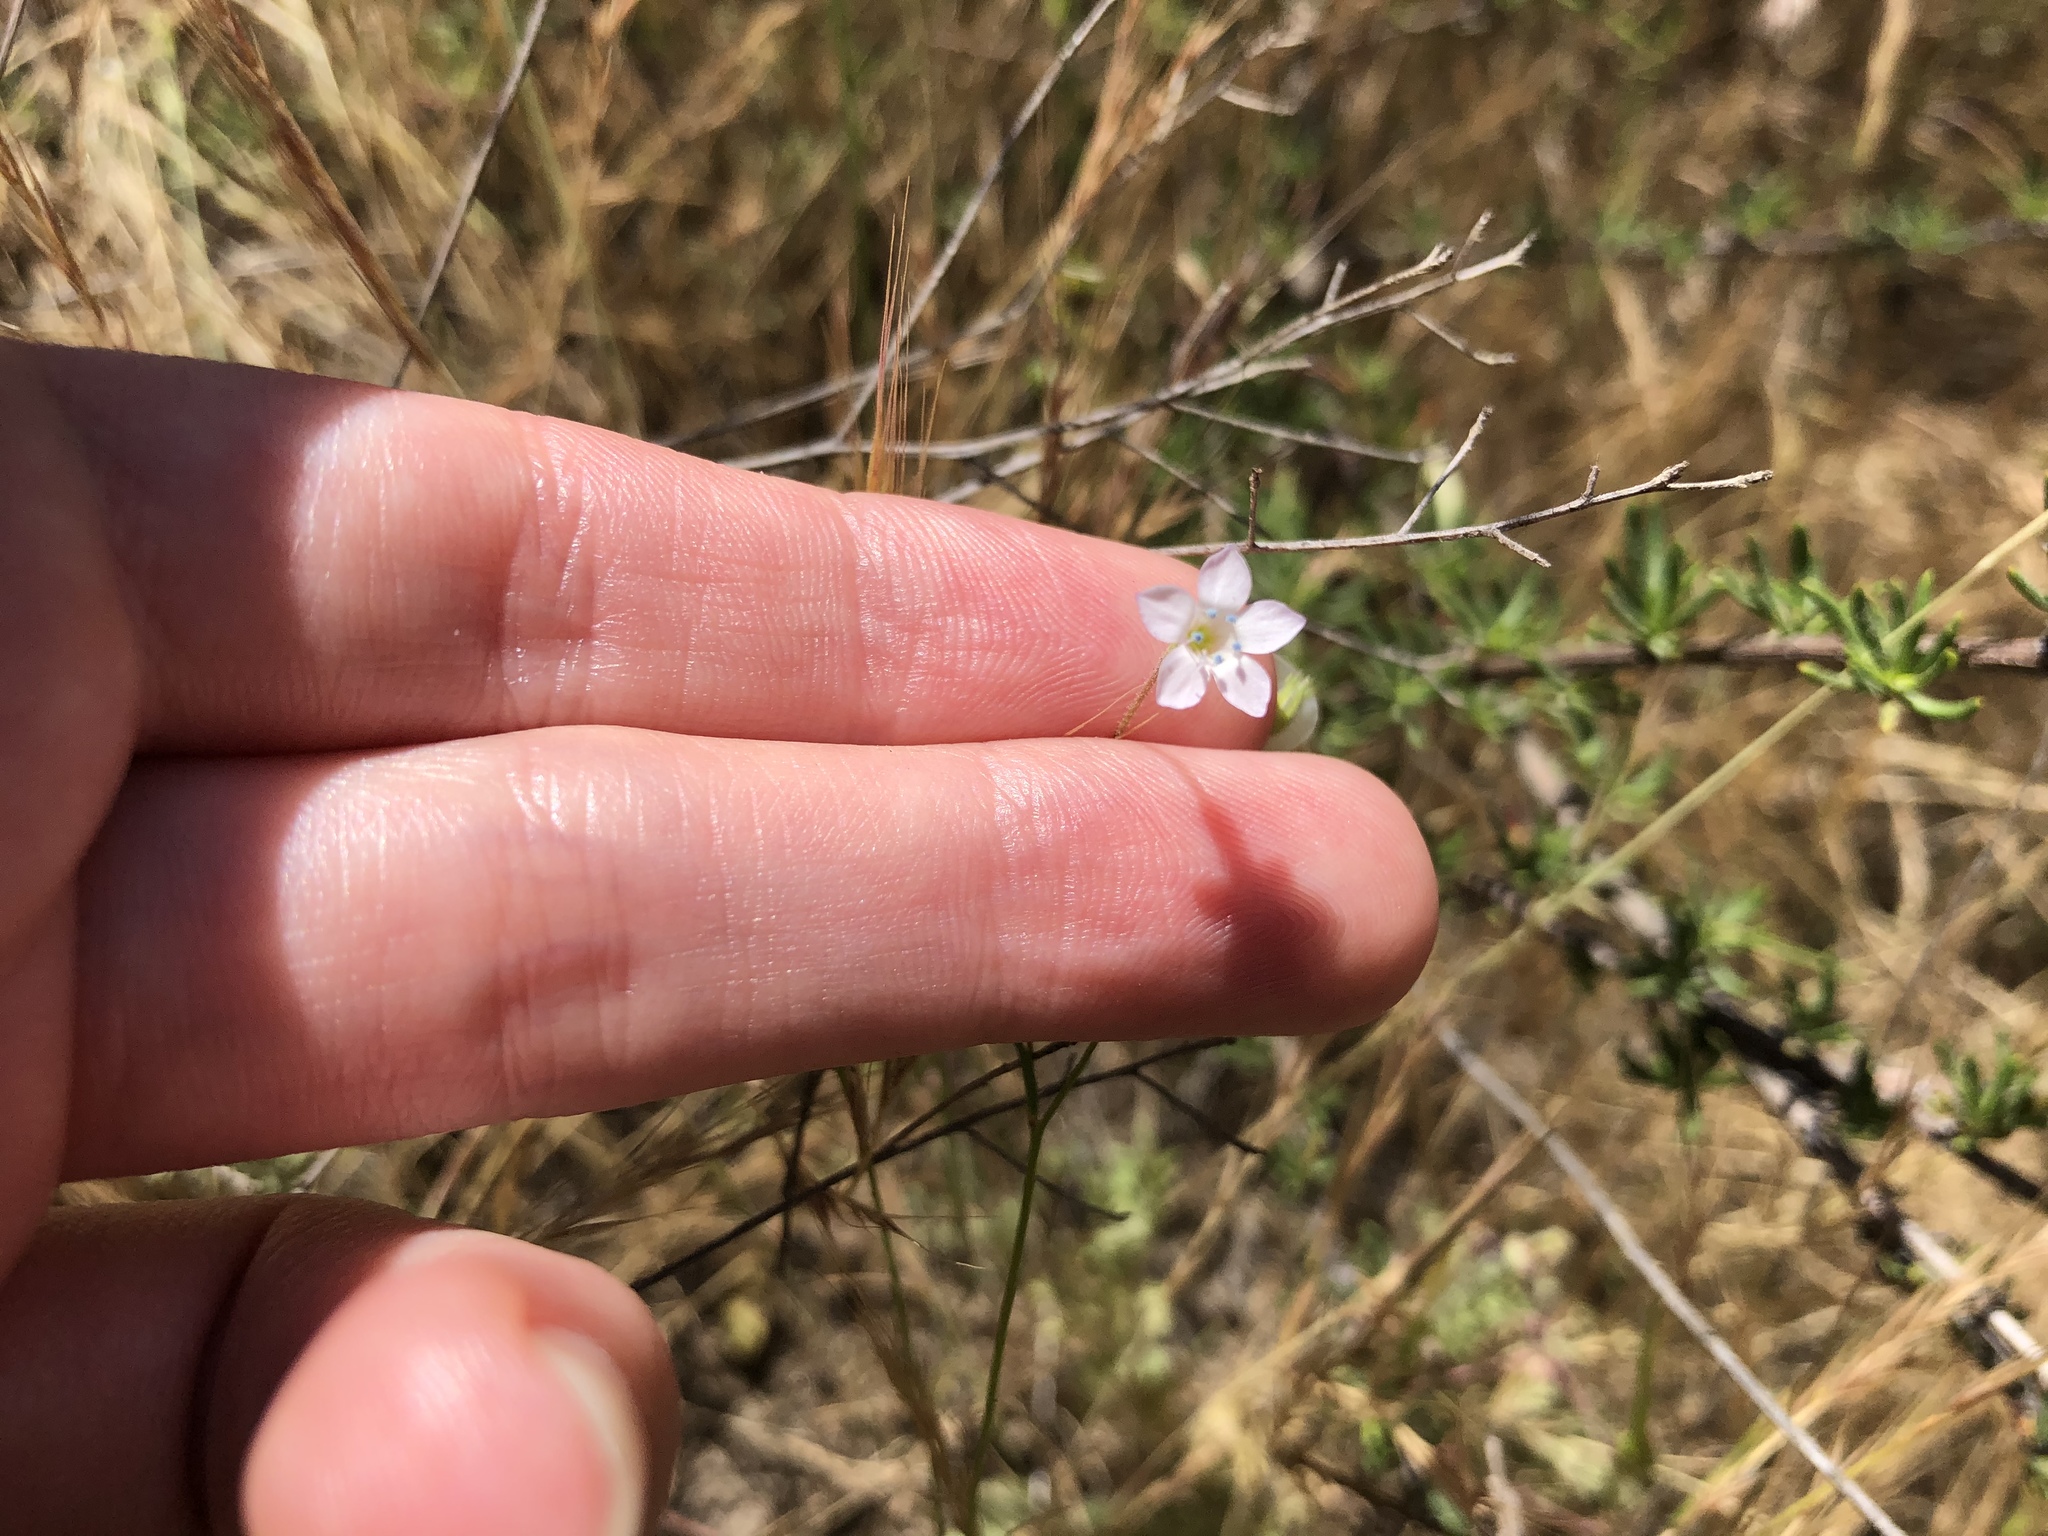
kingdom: Plantae
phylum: Tracheophyta
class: Magnoliopsida
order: Ericales
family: Polemoniaceae
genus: Gilia
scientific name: Gilia angelensis
